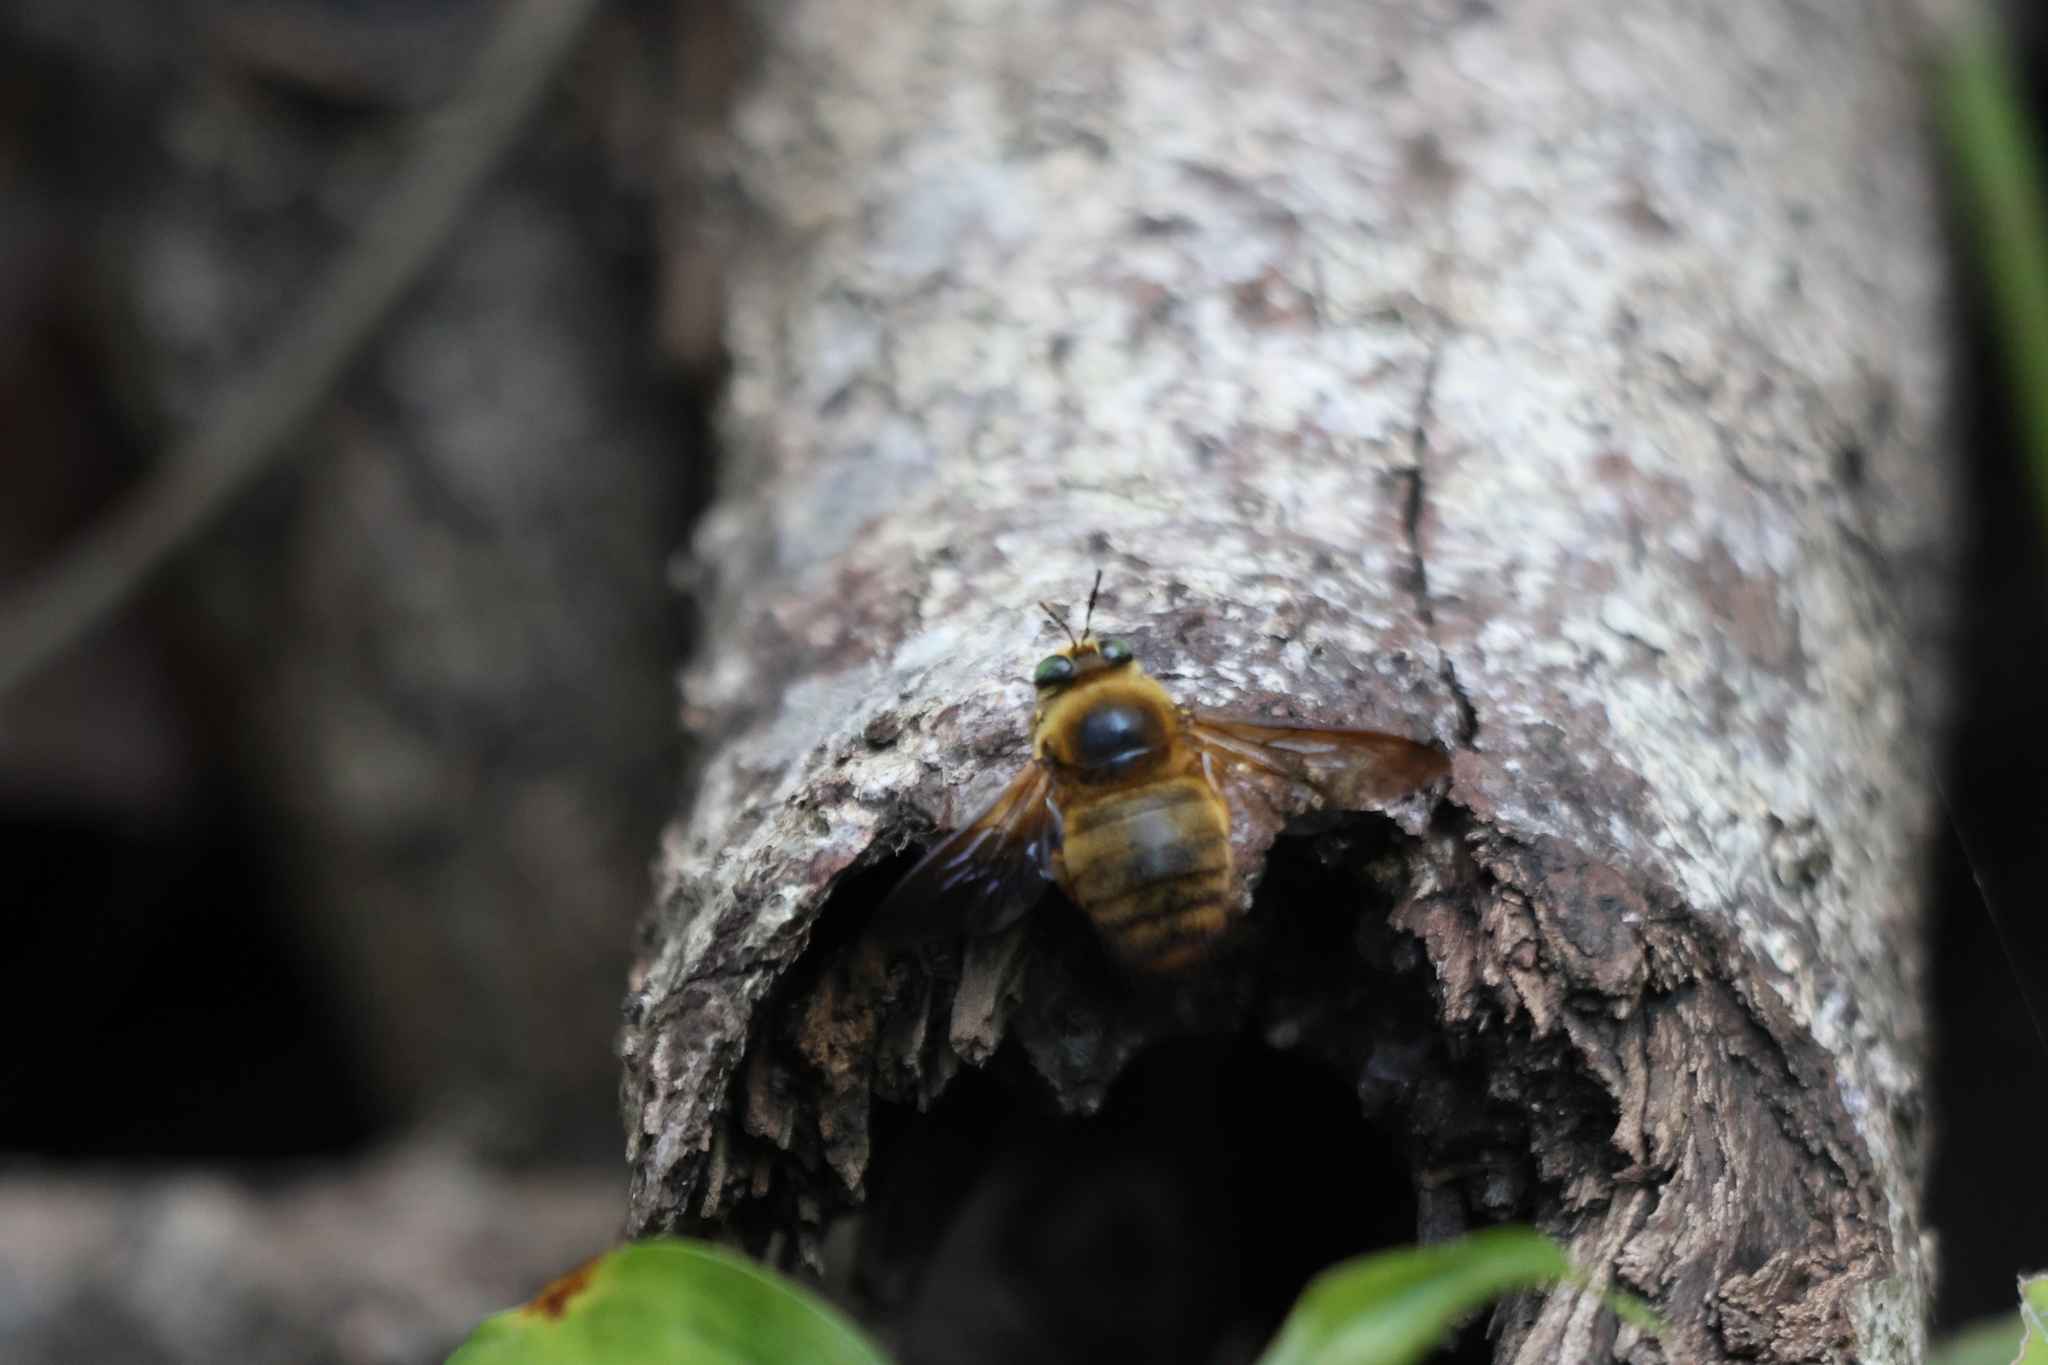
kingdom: Animalia
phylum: Arthropoda
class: Insecta
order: Hymenoptera
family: Apidae
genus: Xylocopa
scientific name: Xylocopa dejeanii
